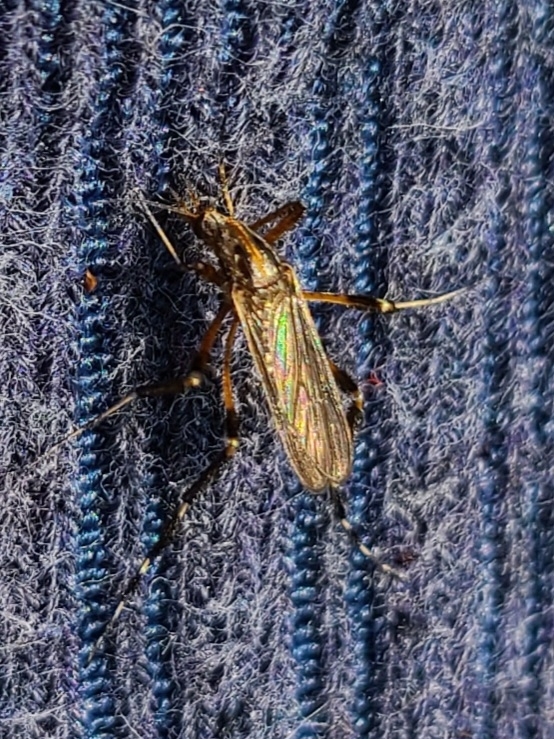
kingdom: Animalia
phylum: Arthropoda
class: Insecta
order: Diptera
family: Culicidae
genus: Psorophora
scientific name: Psorophora ciliata
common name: Gallinipper
